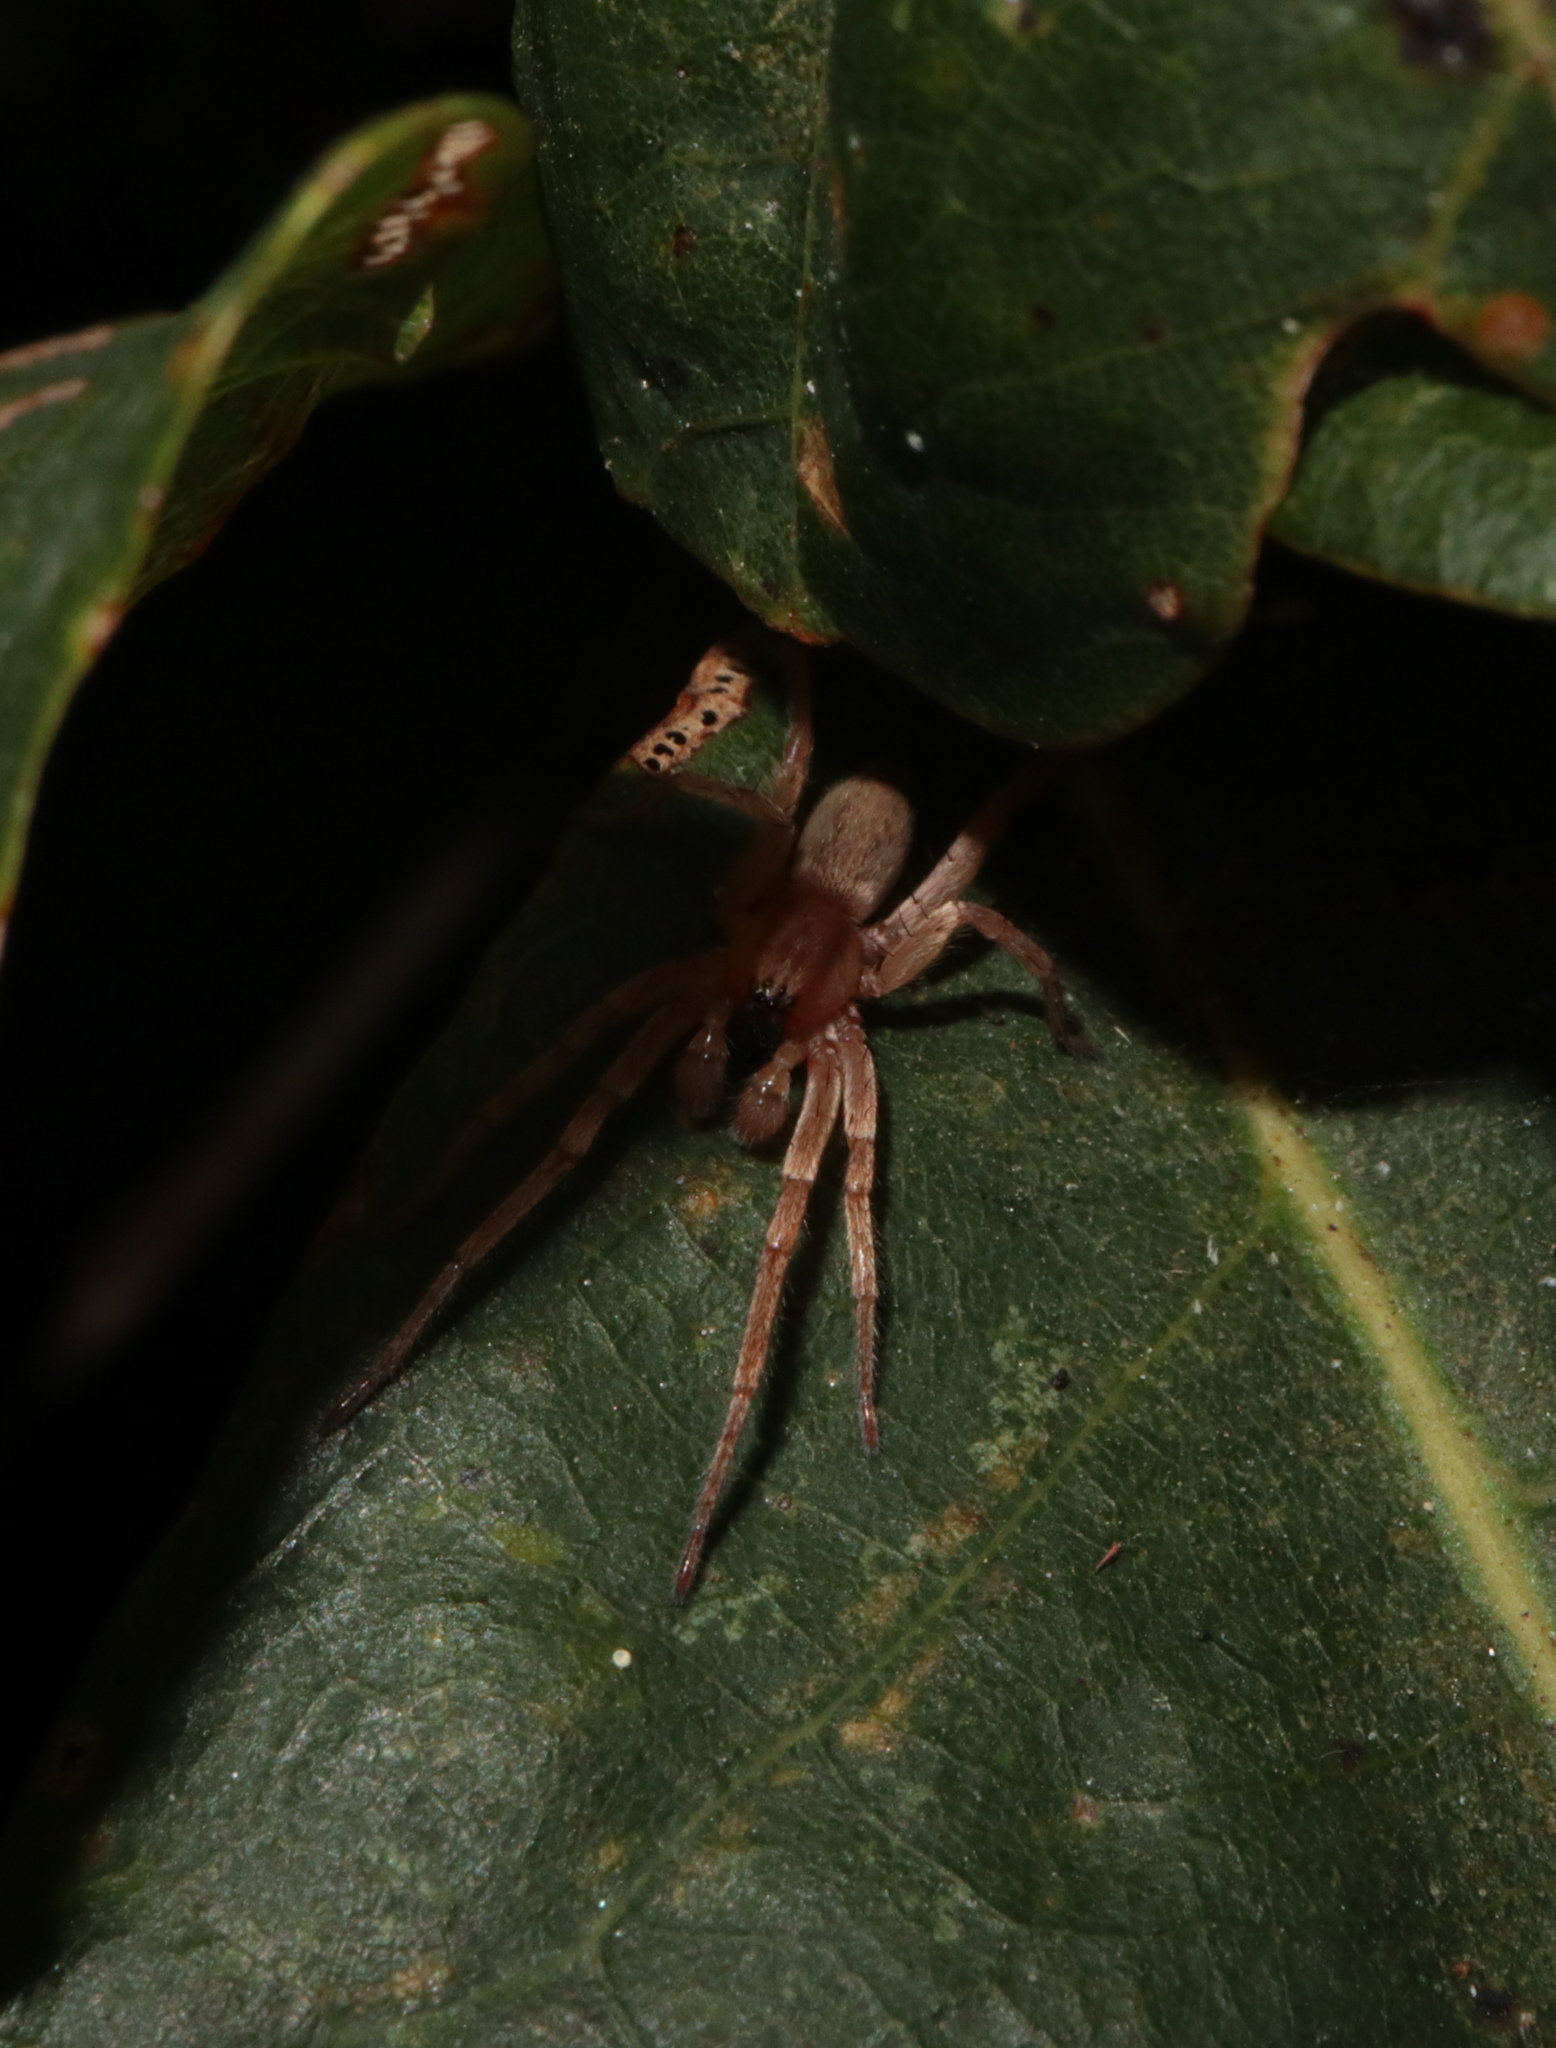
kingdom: Animalia
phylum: Arthropoda
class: Arachnida
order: Araneae
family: Anyphaenidae
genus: Hibana
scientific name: Hibana gracilis
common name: Garden ghost spider
